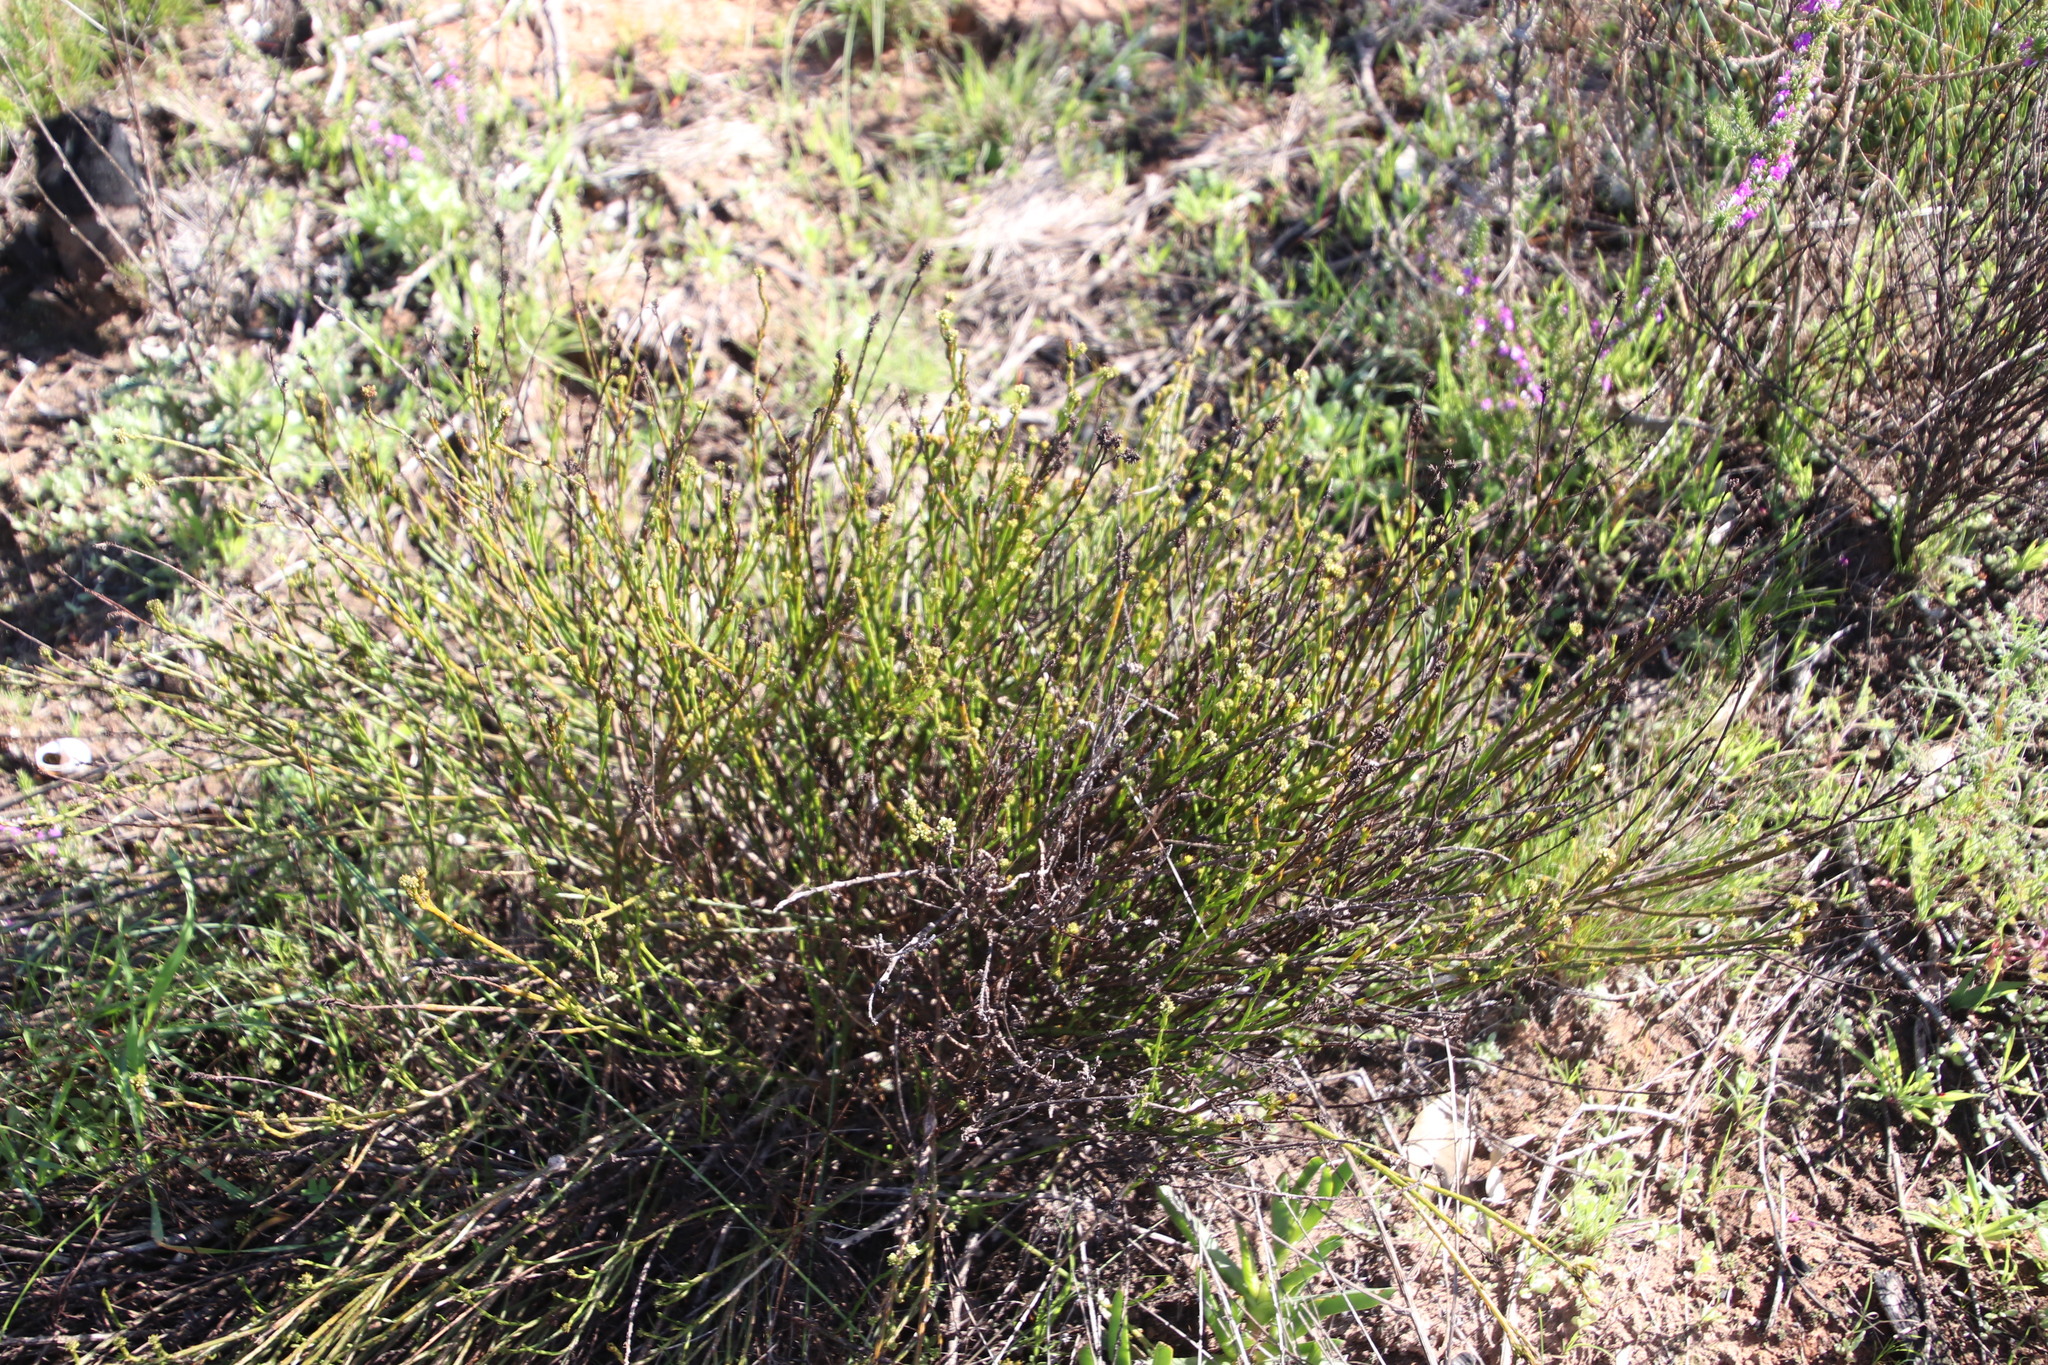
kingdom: Plantae
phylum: Tracheophyta
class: Magnoliopsida
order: Santalales
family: Thesiaceae
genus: Thesium
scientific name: Thesium aggregatum
